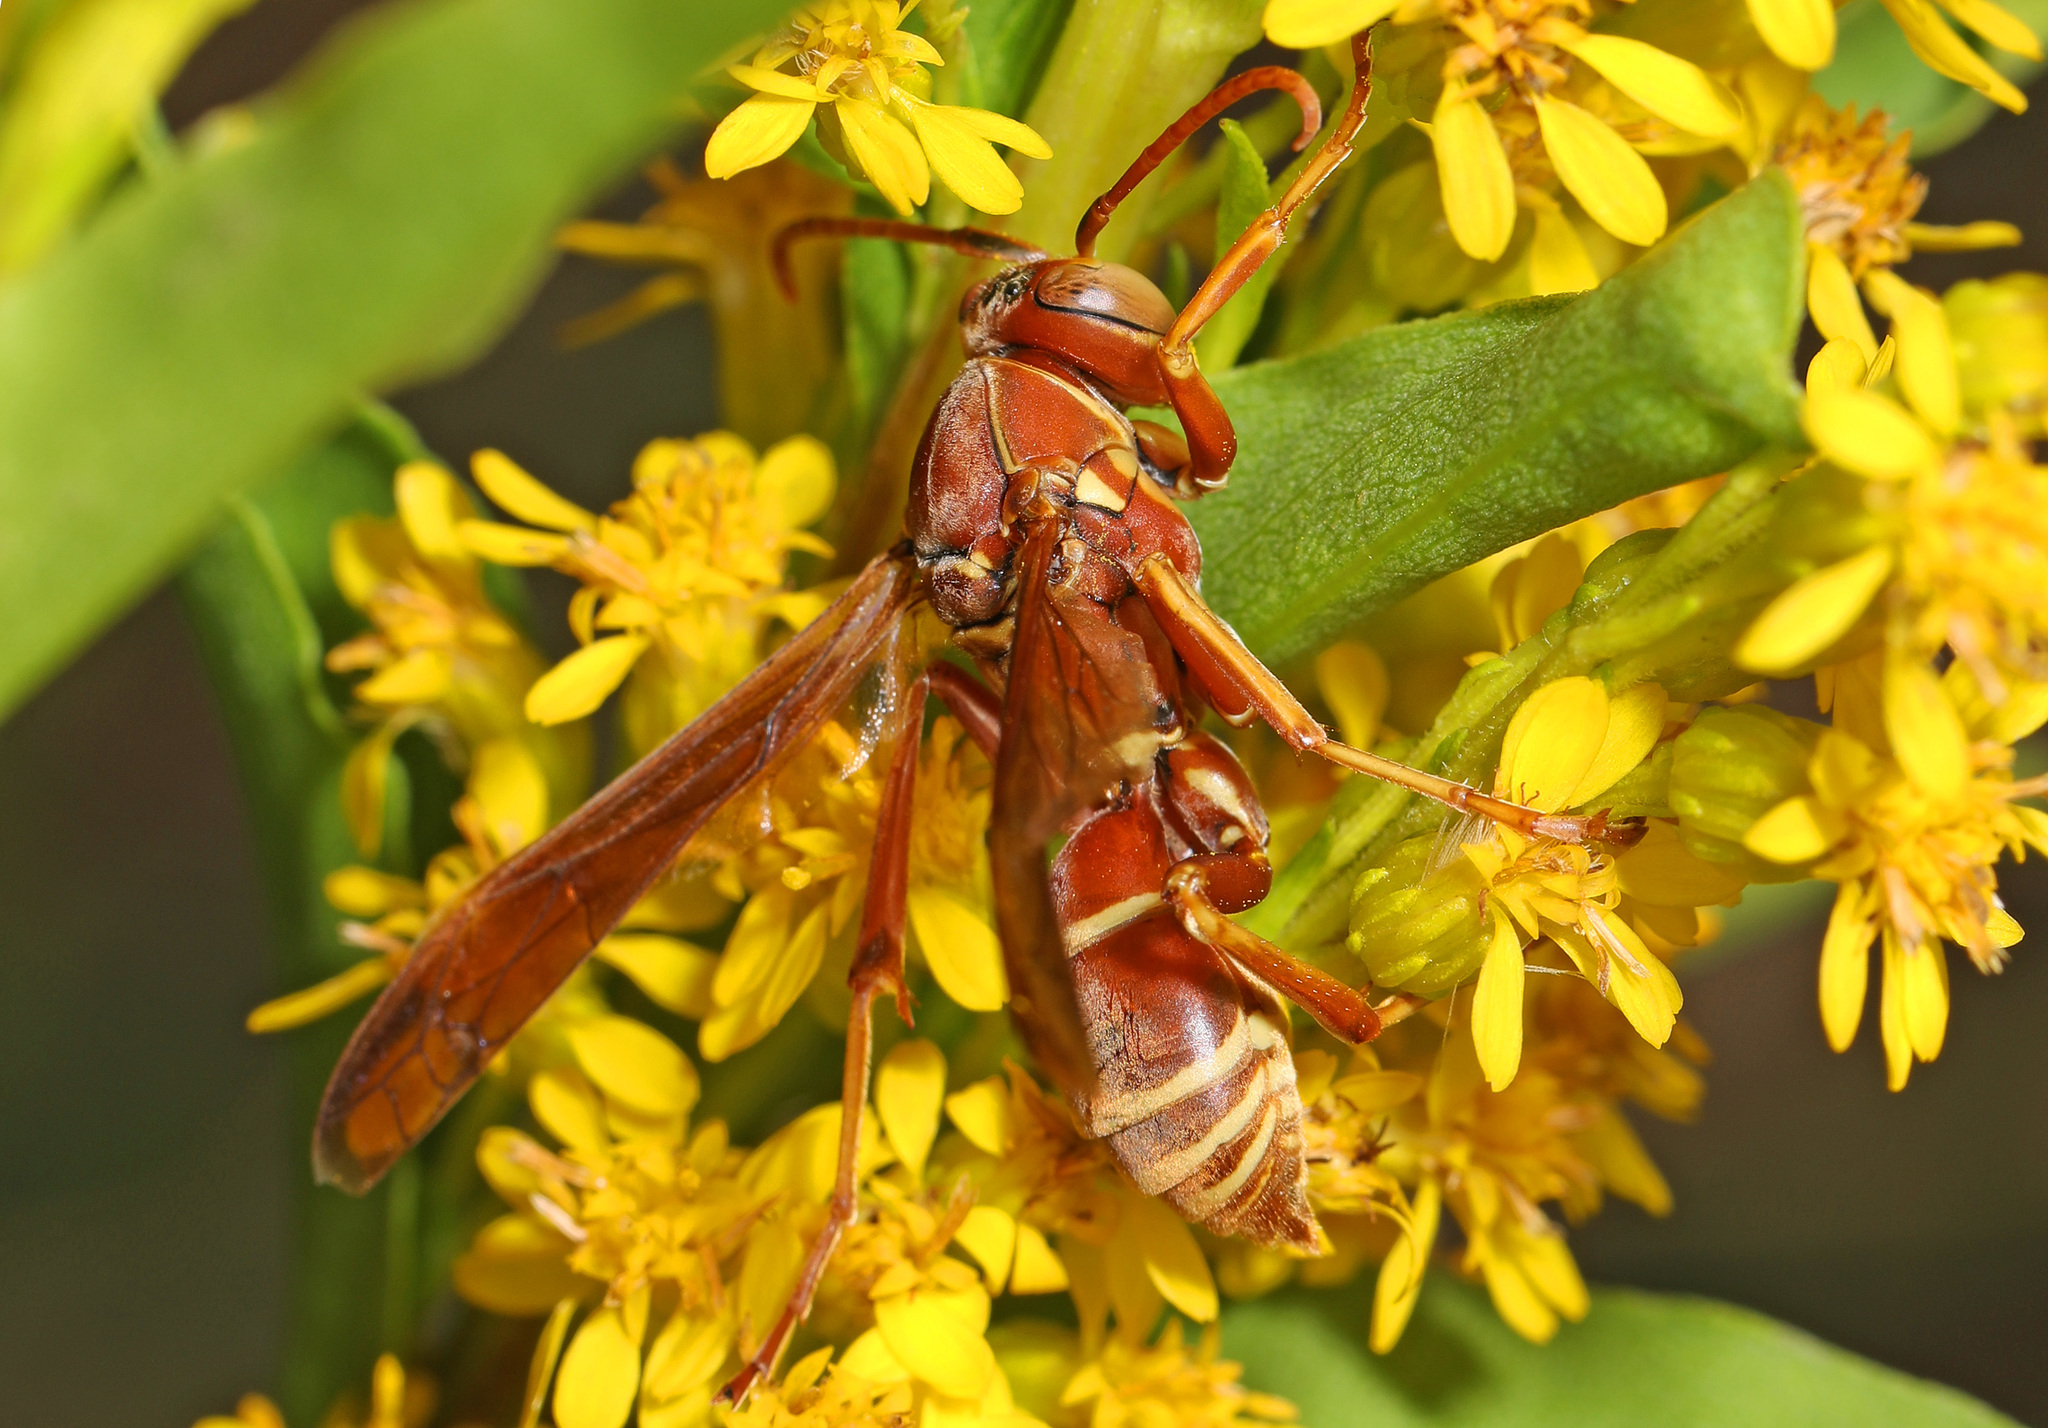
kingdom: Animalia
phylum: Arthropoda
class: Insecta
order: Hymenoptera
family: Eumenidae
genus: Polistes
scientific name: Polistes bellicosus
